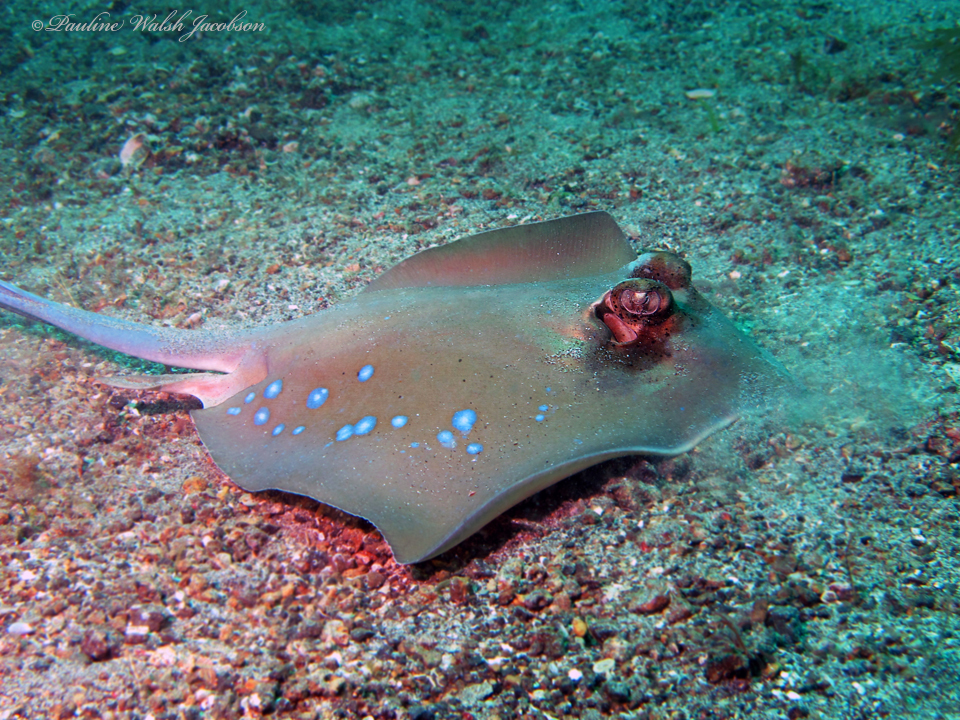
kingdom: Animalia
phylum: Chordata
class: Elasmobranchii
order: Myliobatiformes
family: Dasyatidae
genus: Neotrygon
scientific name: Neotrygon orientale
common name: Oriental bluespotted maskray
